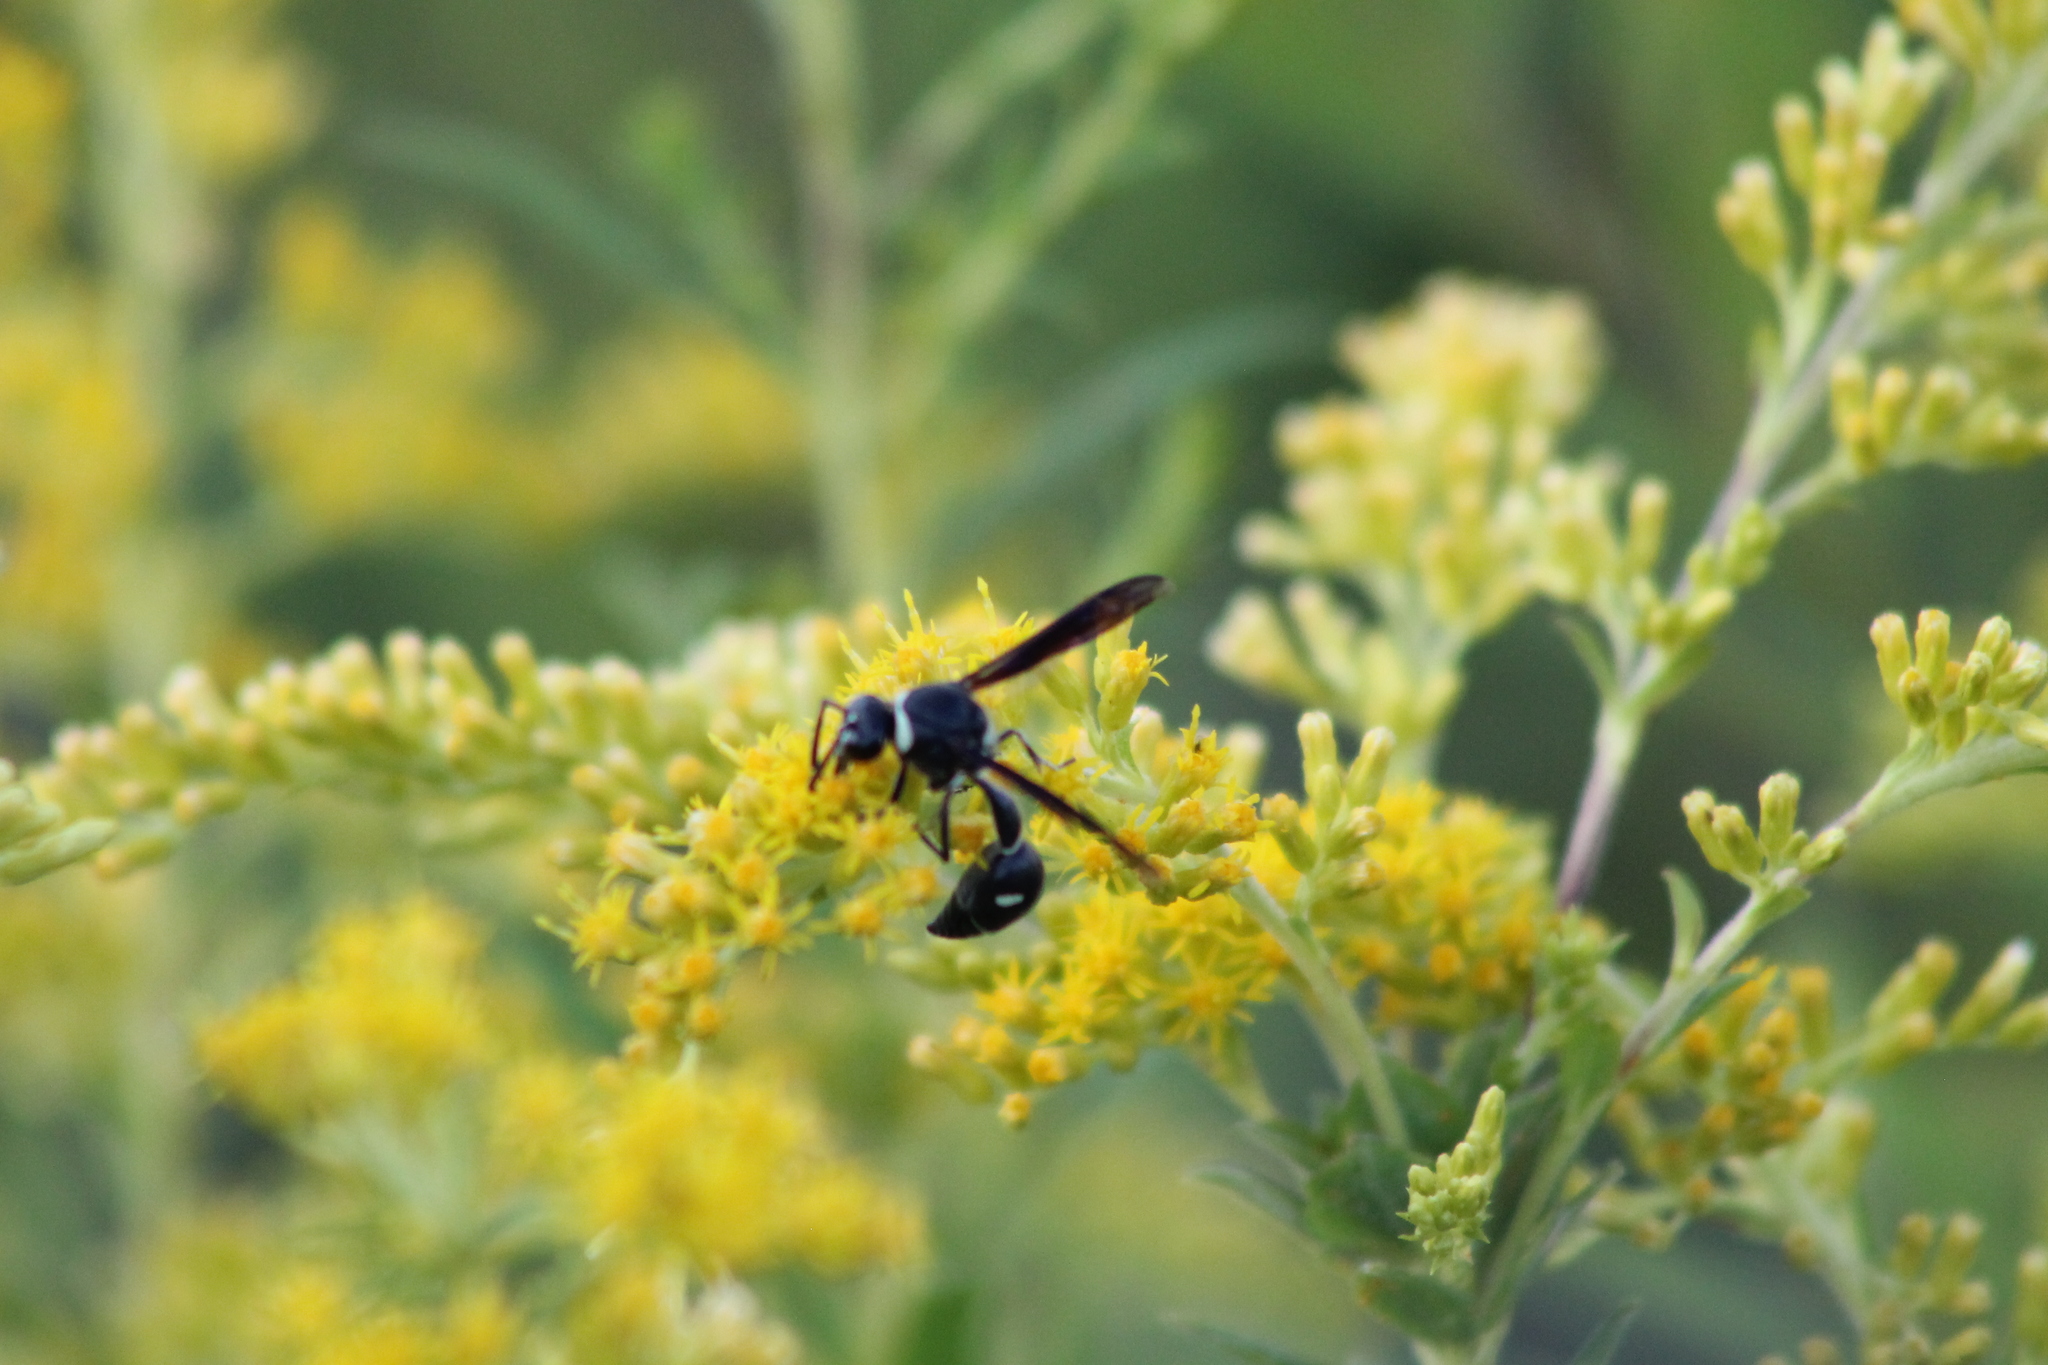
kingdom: Animalia
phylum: Arthropoda
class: Insecta
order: Hymenoptera
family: Vespidae
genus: Eumenes
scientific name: Eumenes fraternus
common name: Fraternal potter wasp
